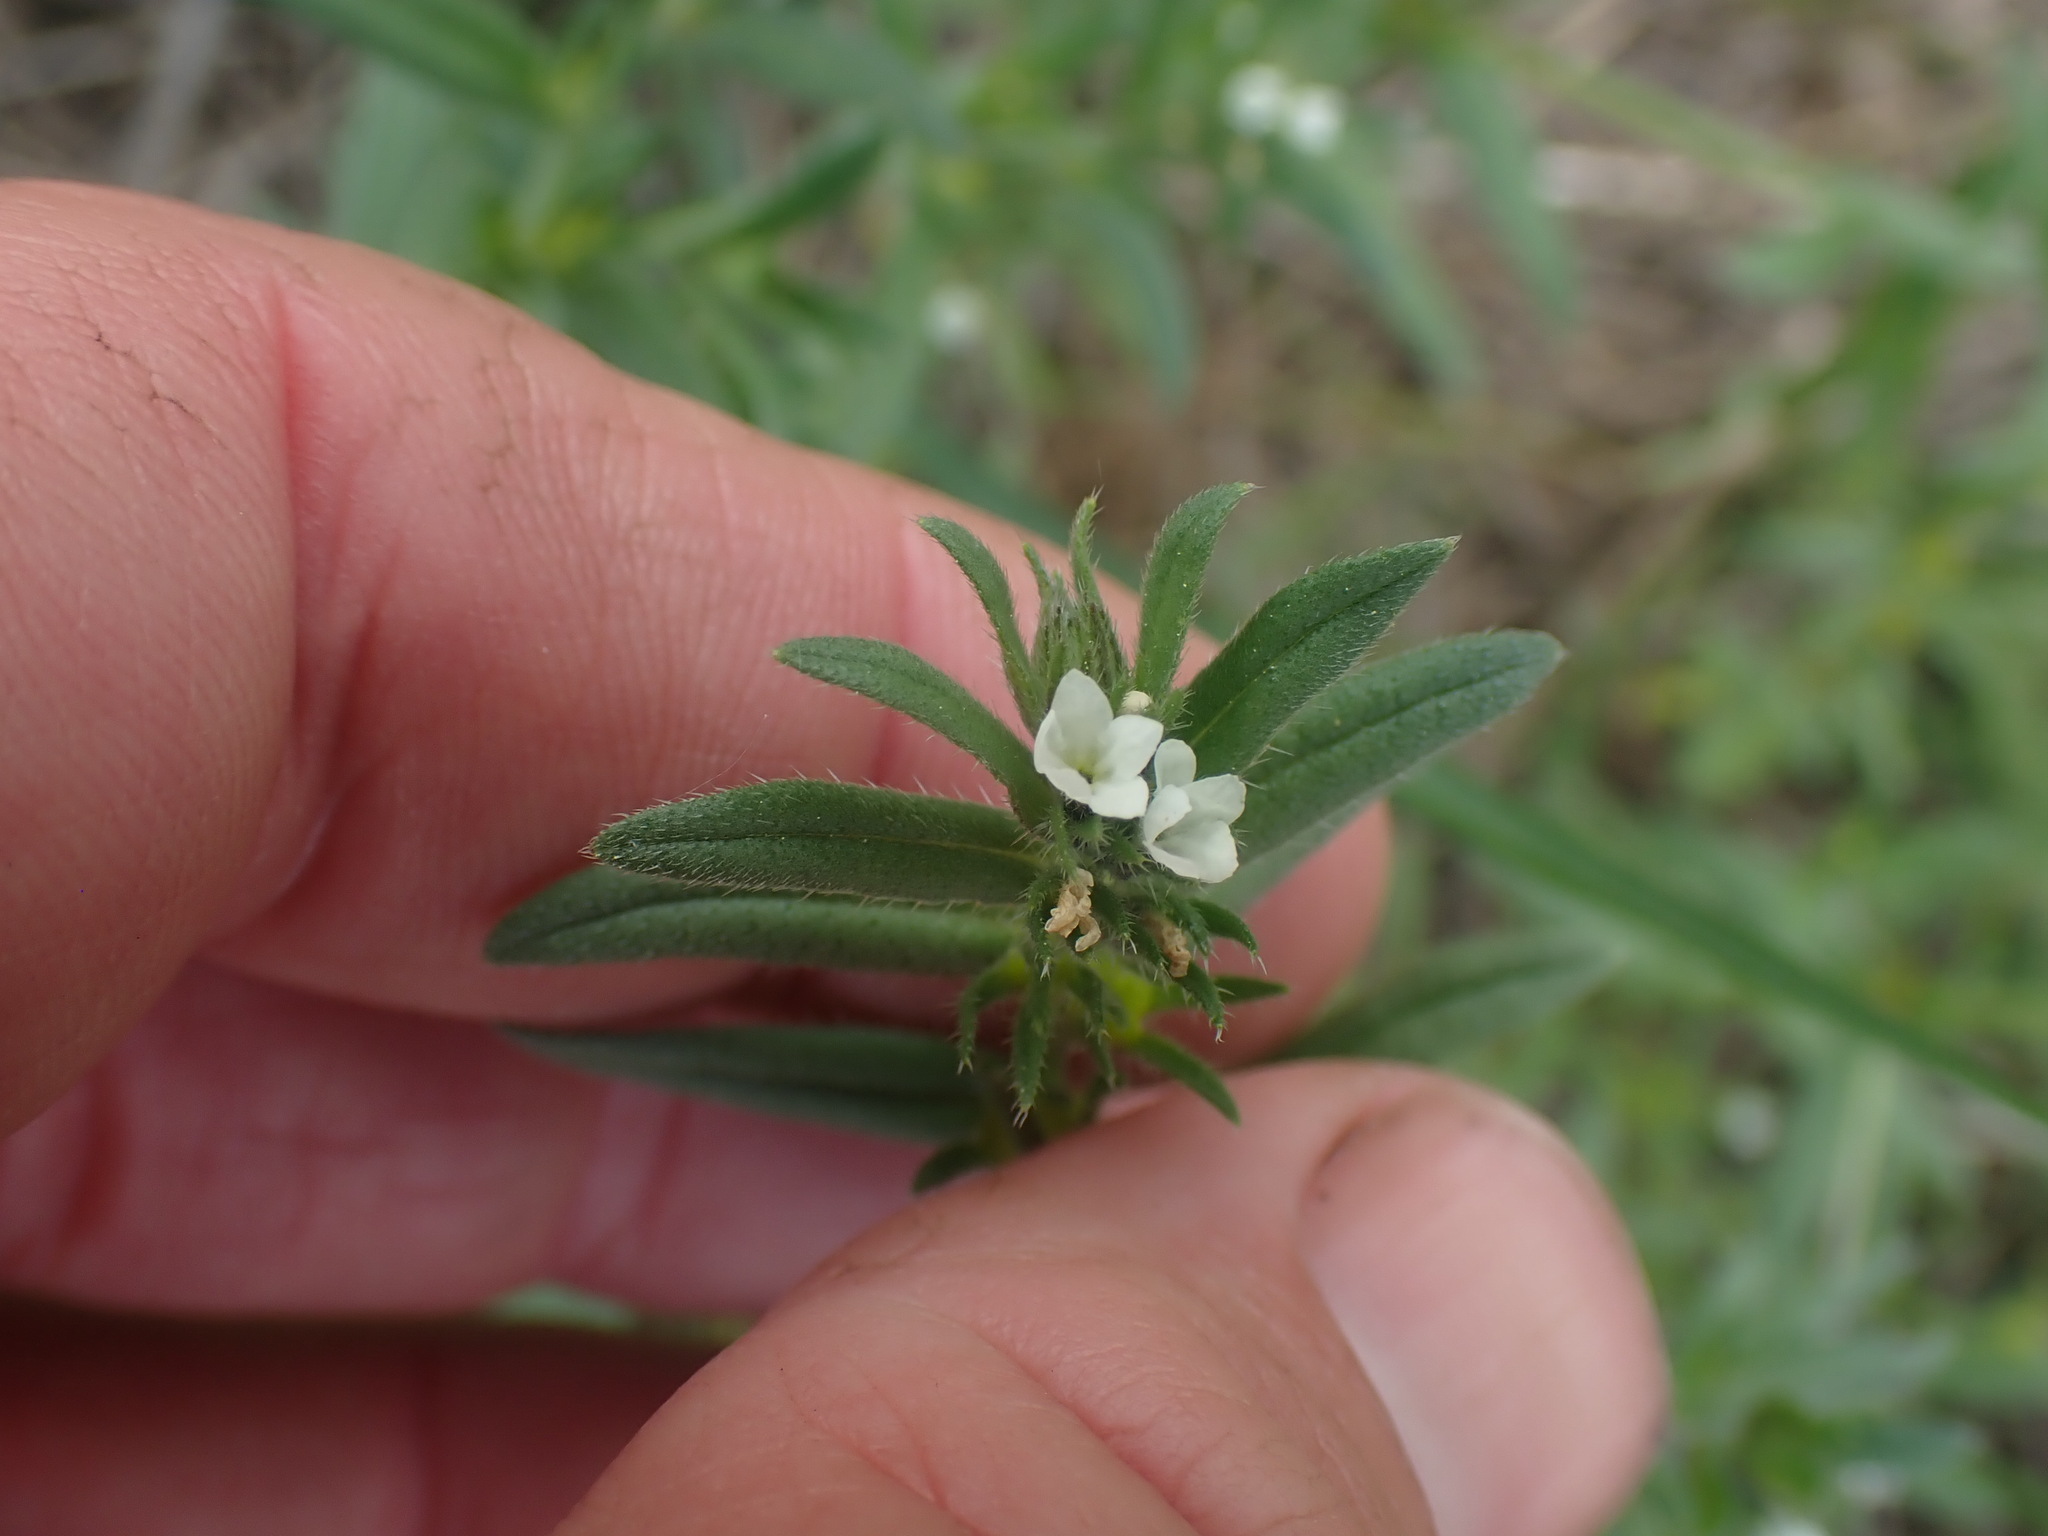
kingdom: Plantae
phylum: Tracheophyta
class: Magnoliopsida
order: Boraginales
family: Boraginaceae
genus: Buglossoides
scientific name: Buglossoides arvensis
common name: Corn gromwell
